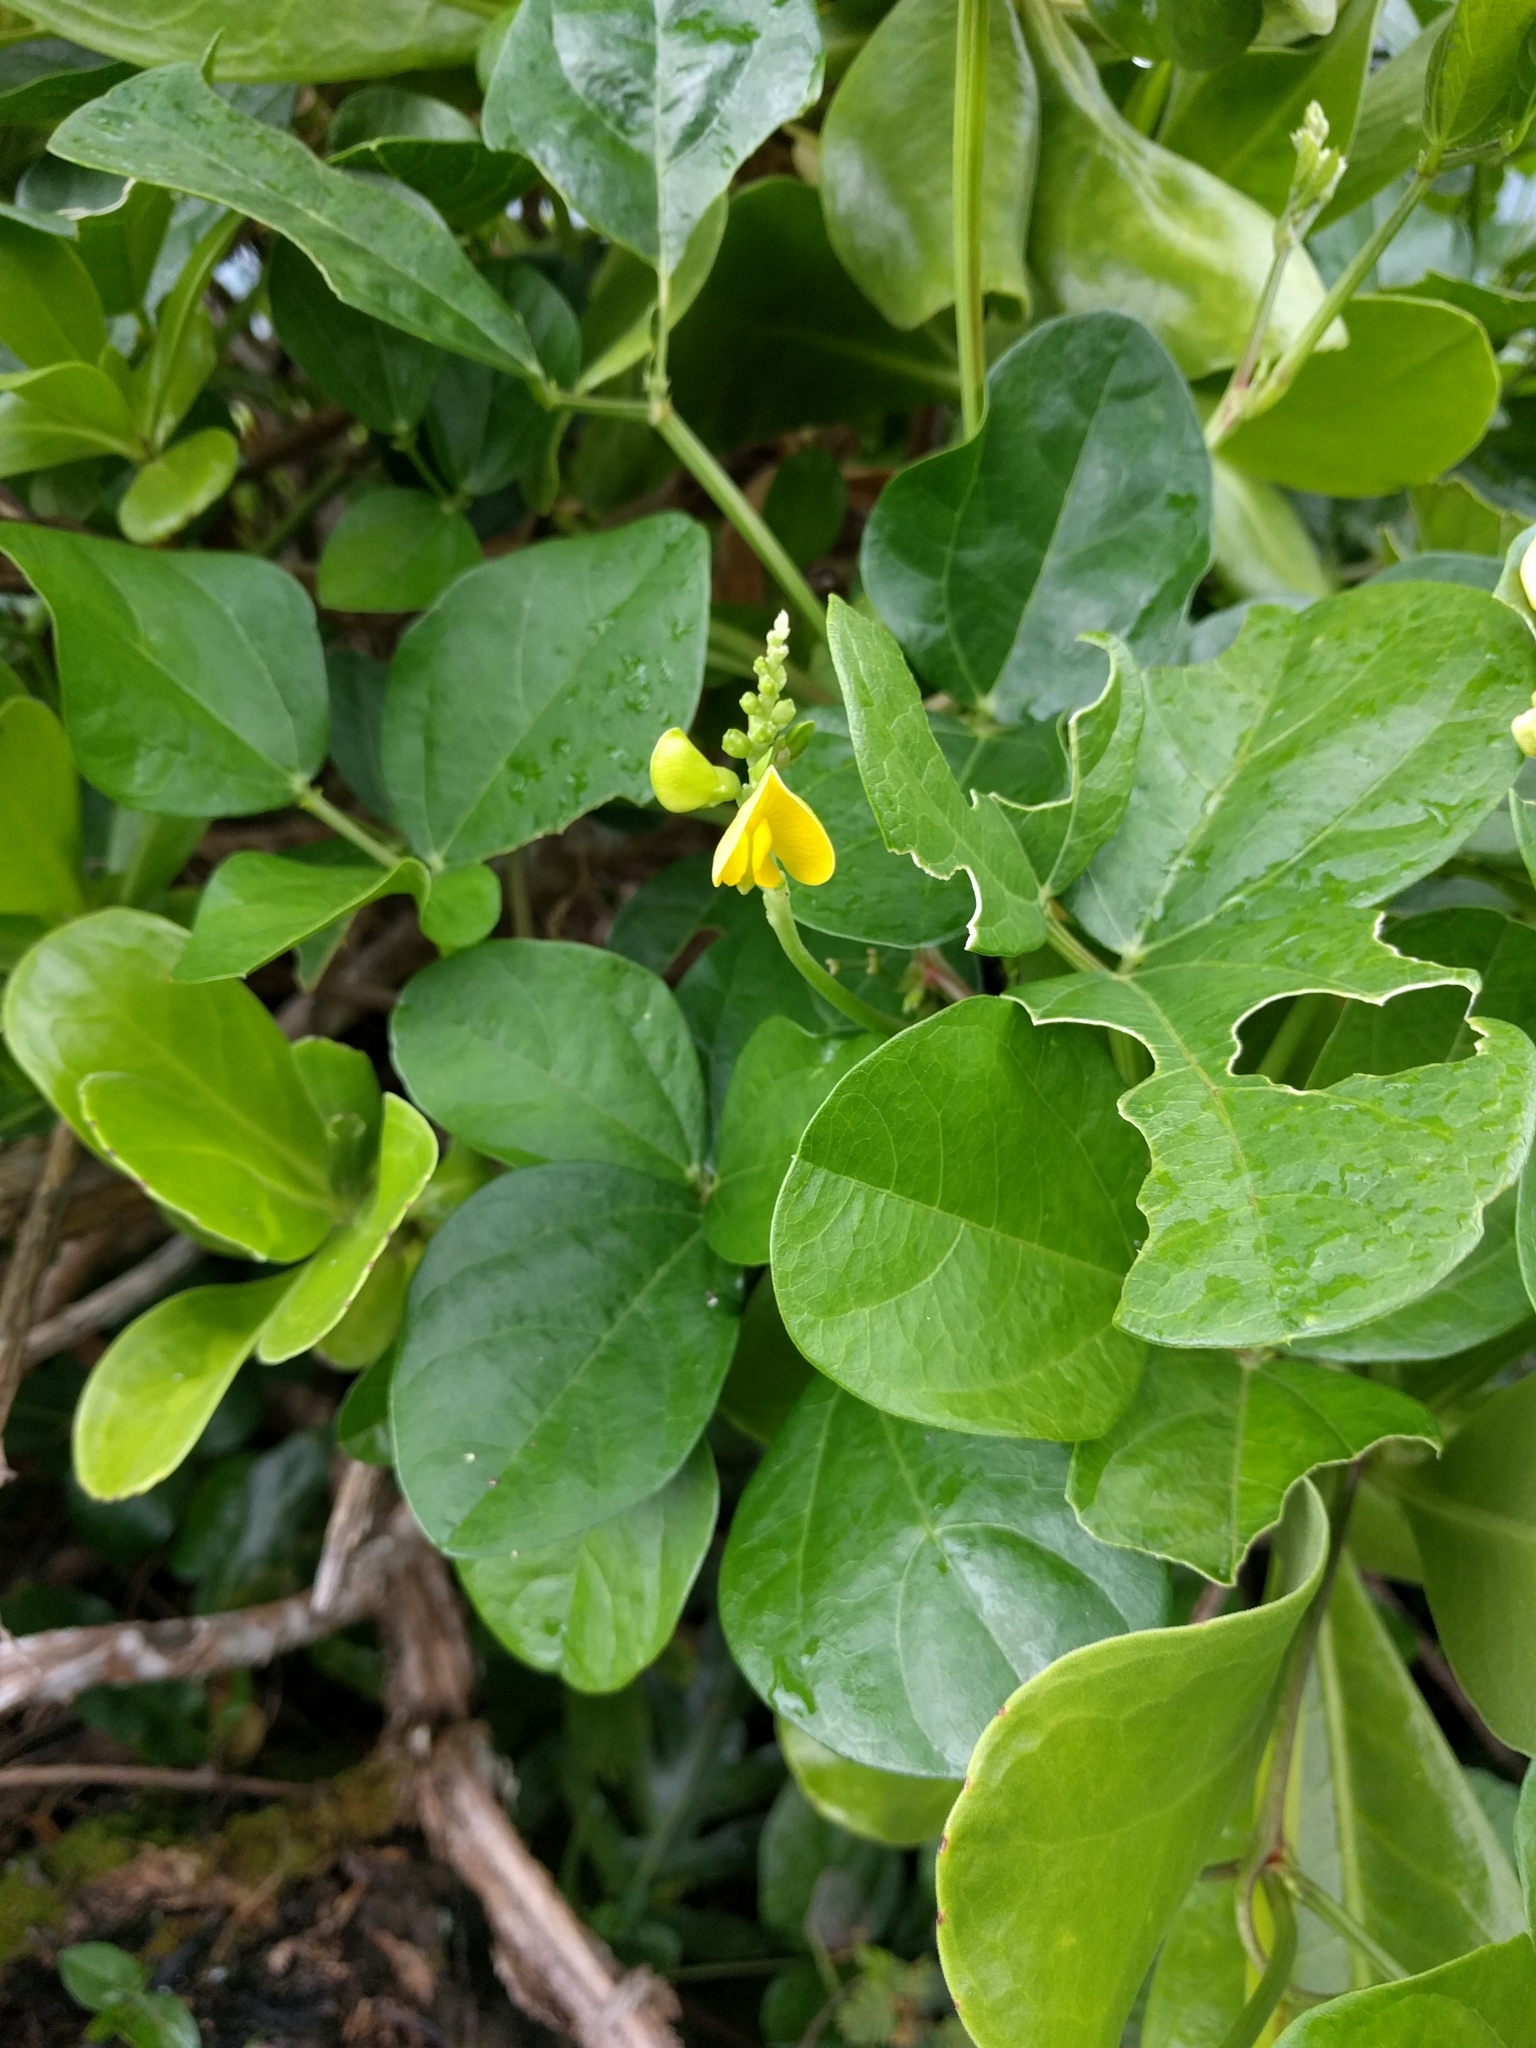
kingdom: Plantae
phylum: Tracheophyta
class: Magnoliopsida
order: Fabales
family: Fabaceae
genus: Vigna
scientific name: Vigna marina
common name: Dune-bean
